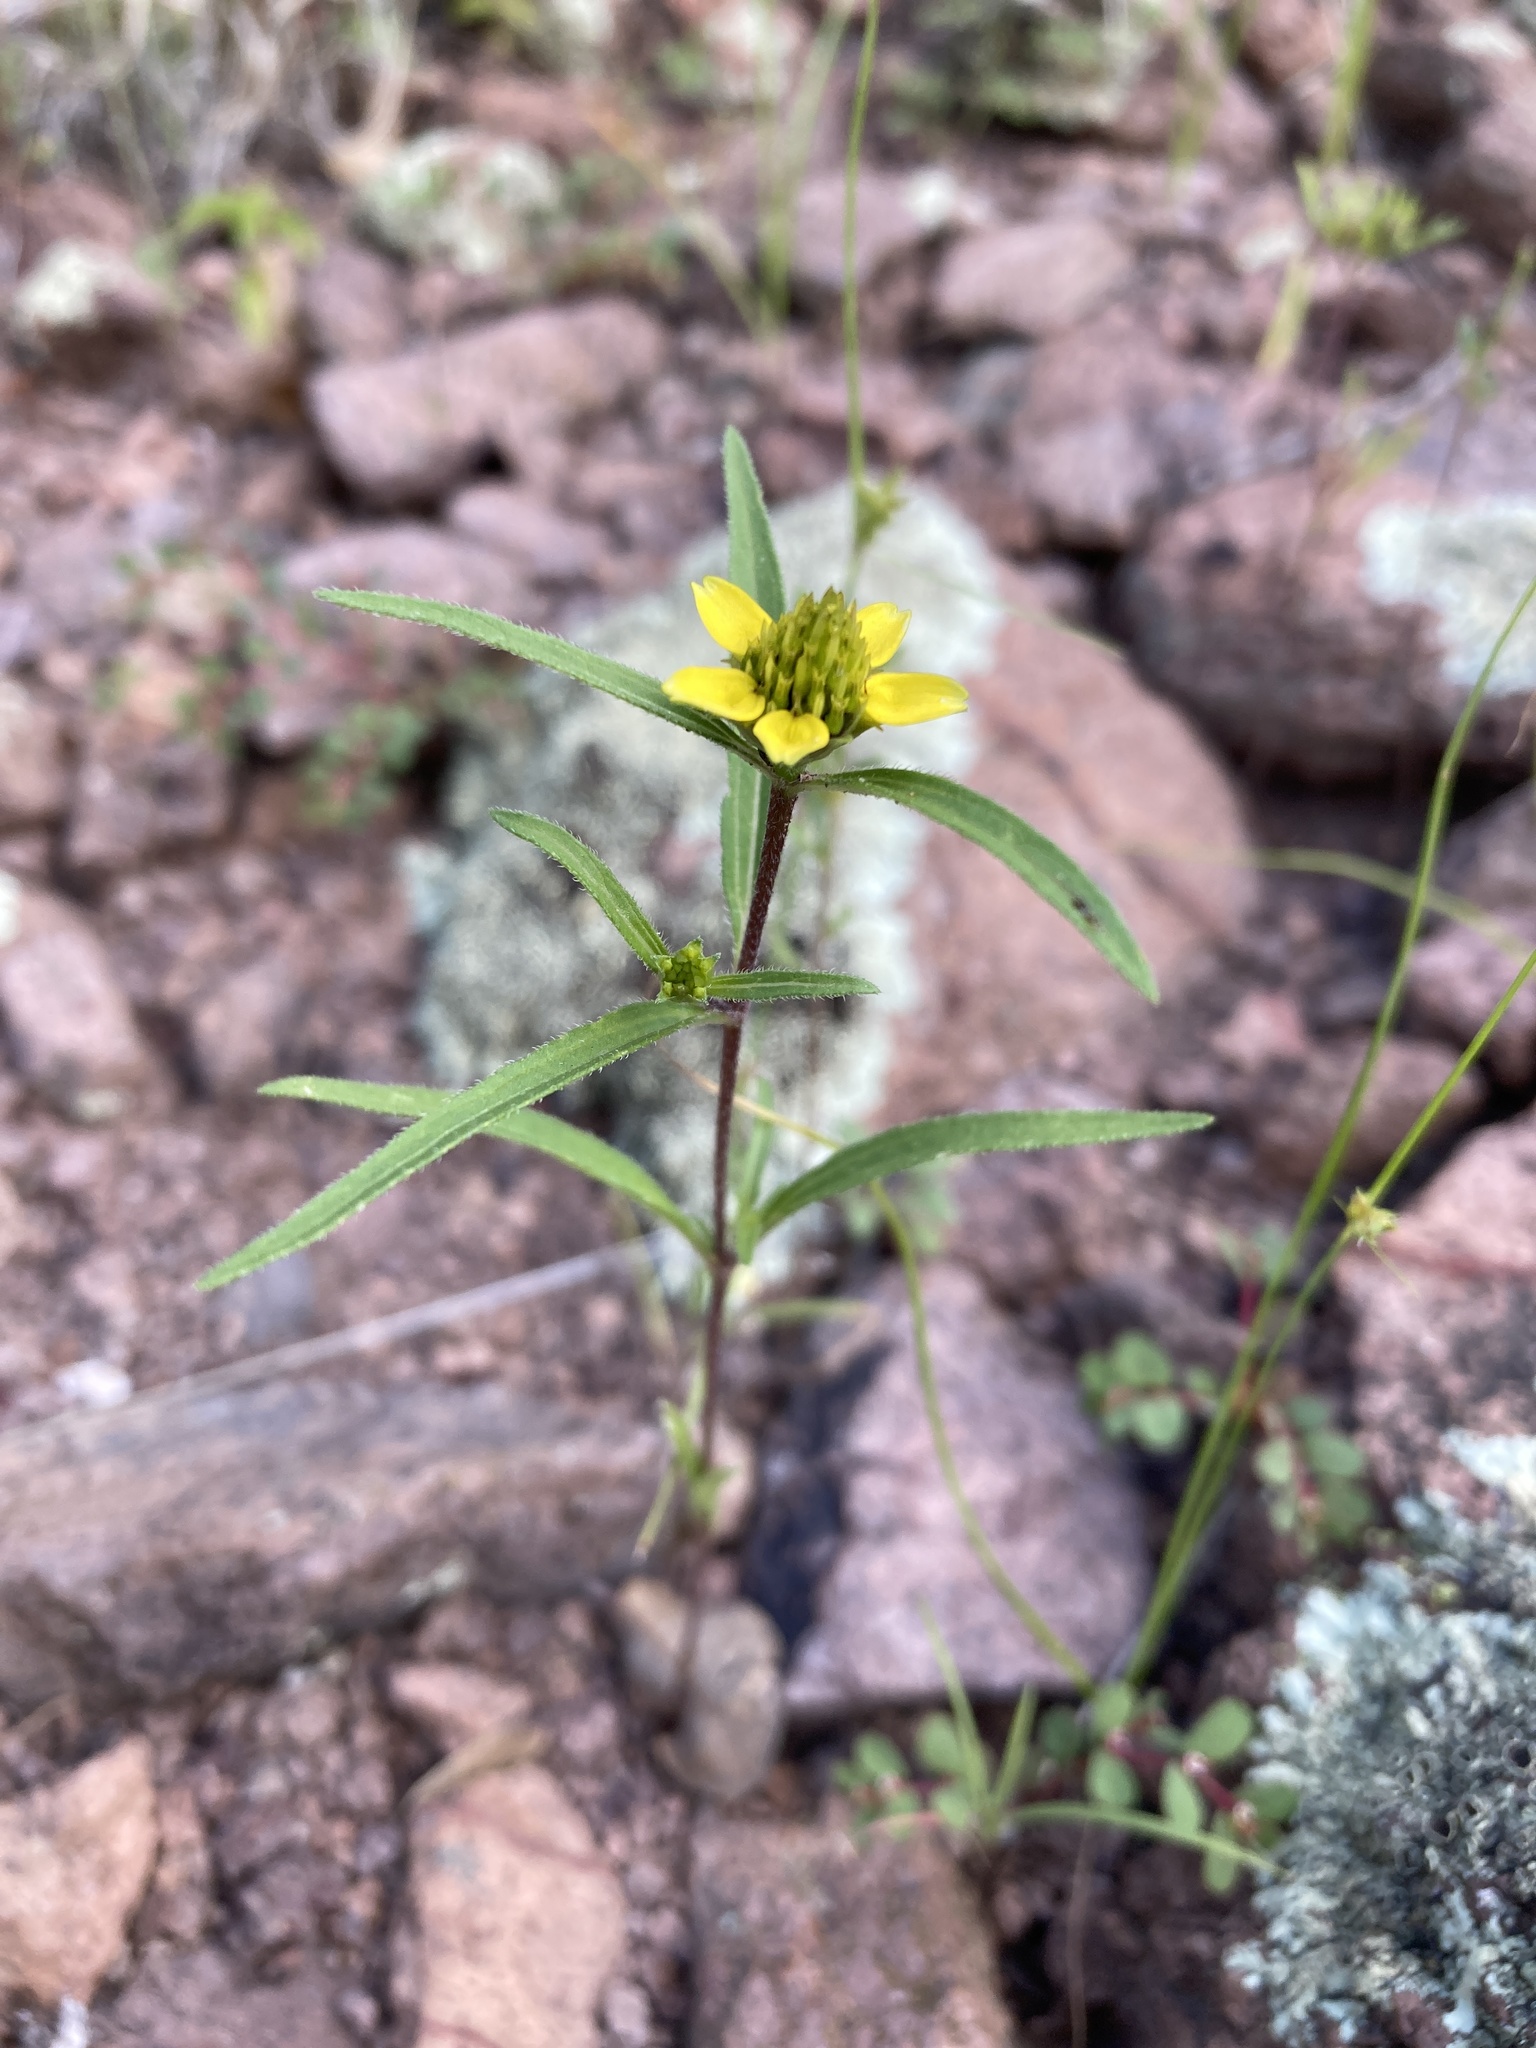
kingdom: Plantae
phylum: Tracheophyta
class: Magnoliopsida
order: Asterales
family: Asteraceae
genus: Sanvitalia
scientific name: Sanvitalia abertii
